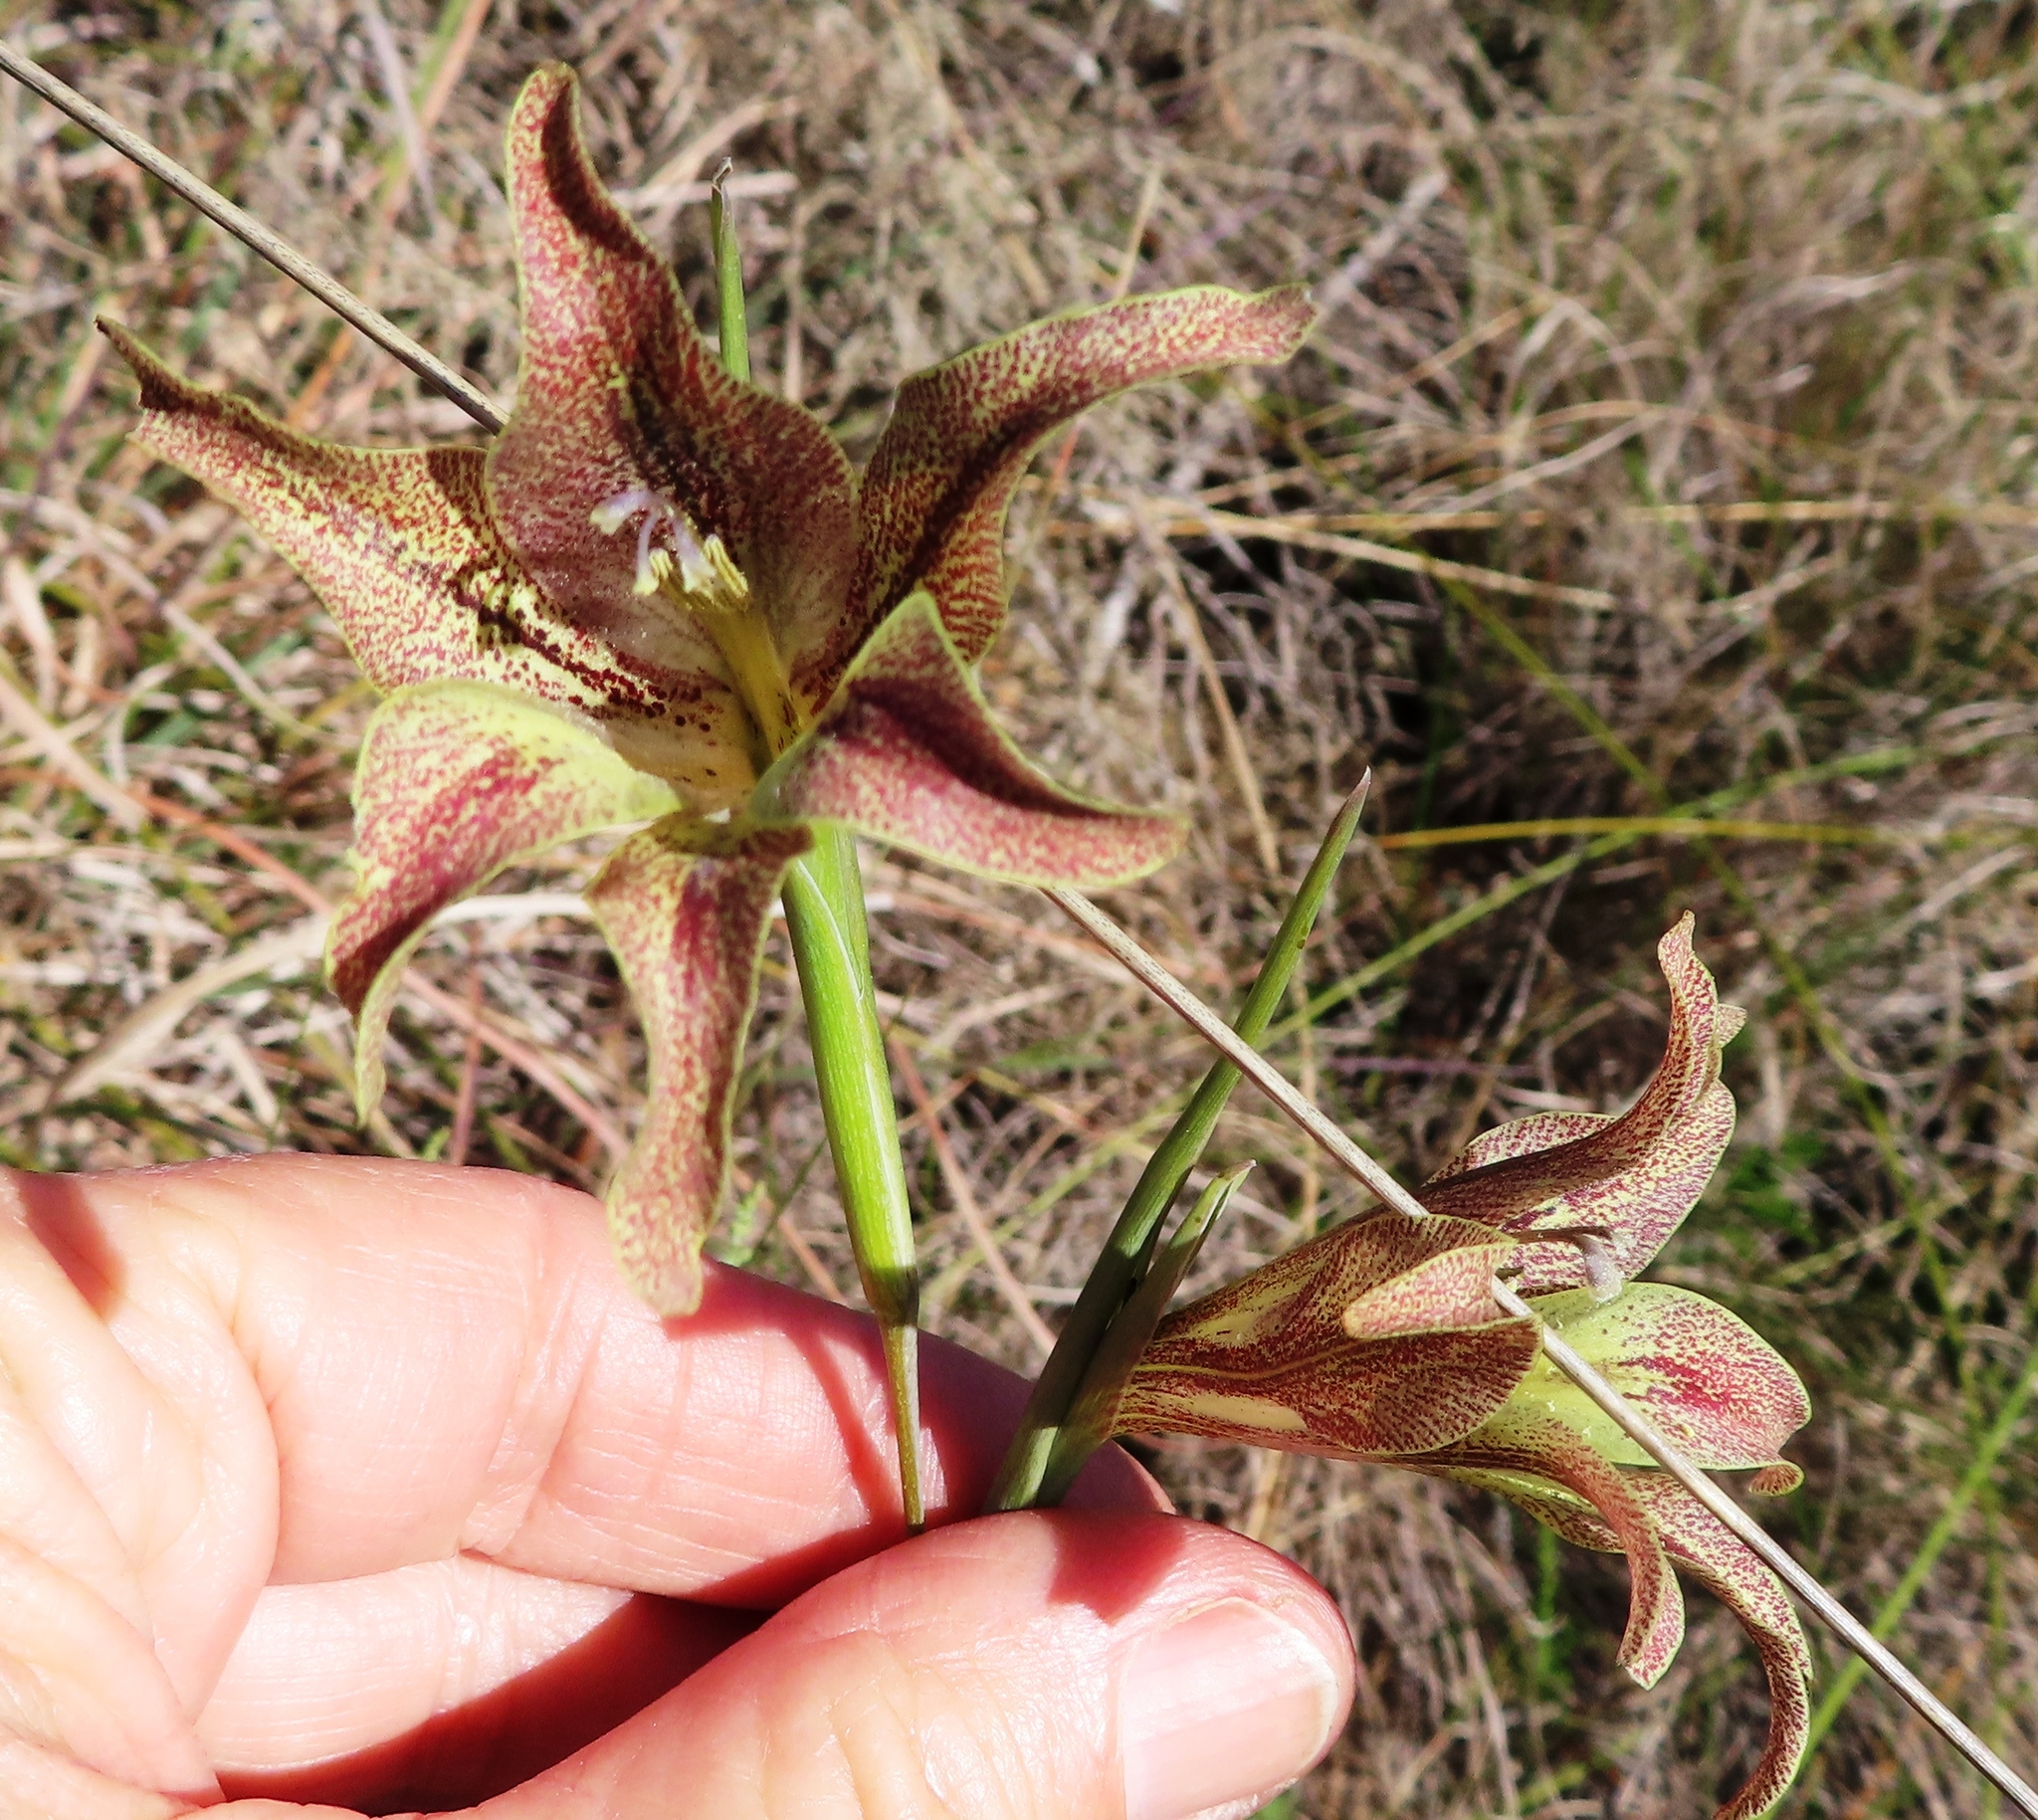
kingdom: Plantae
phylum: Tracheophyta
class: Liliopsida
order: Asparagales
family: Iridaceae
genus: Gladiolus
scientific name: Gladiolus liliaceus
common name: Large brown afrikaner
